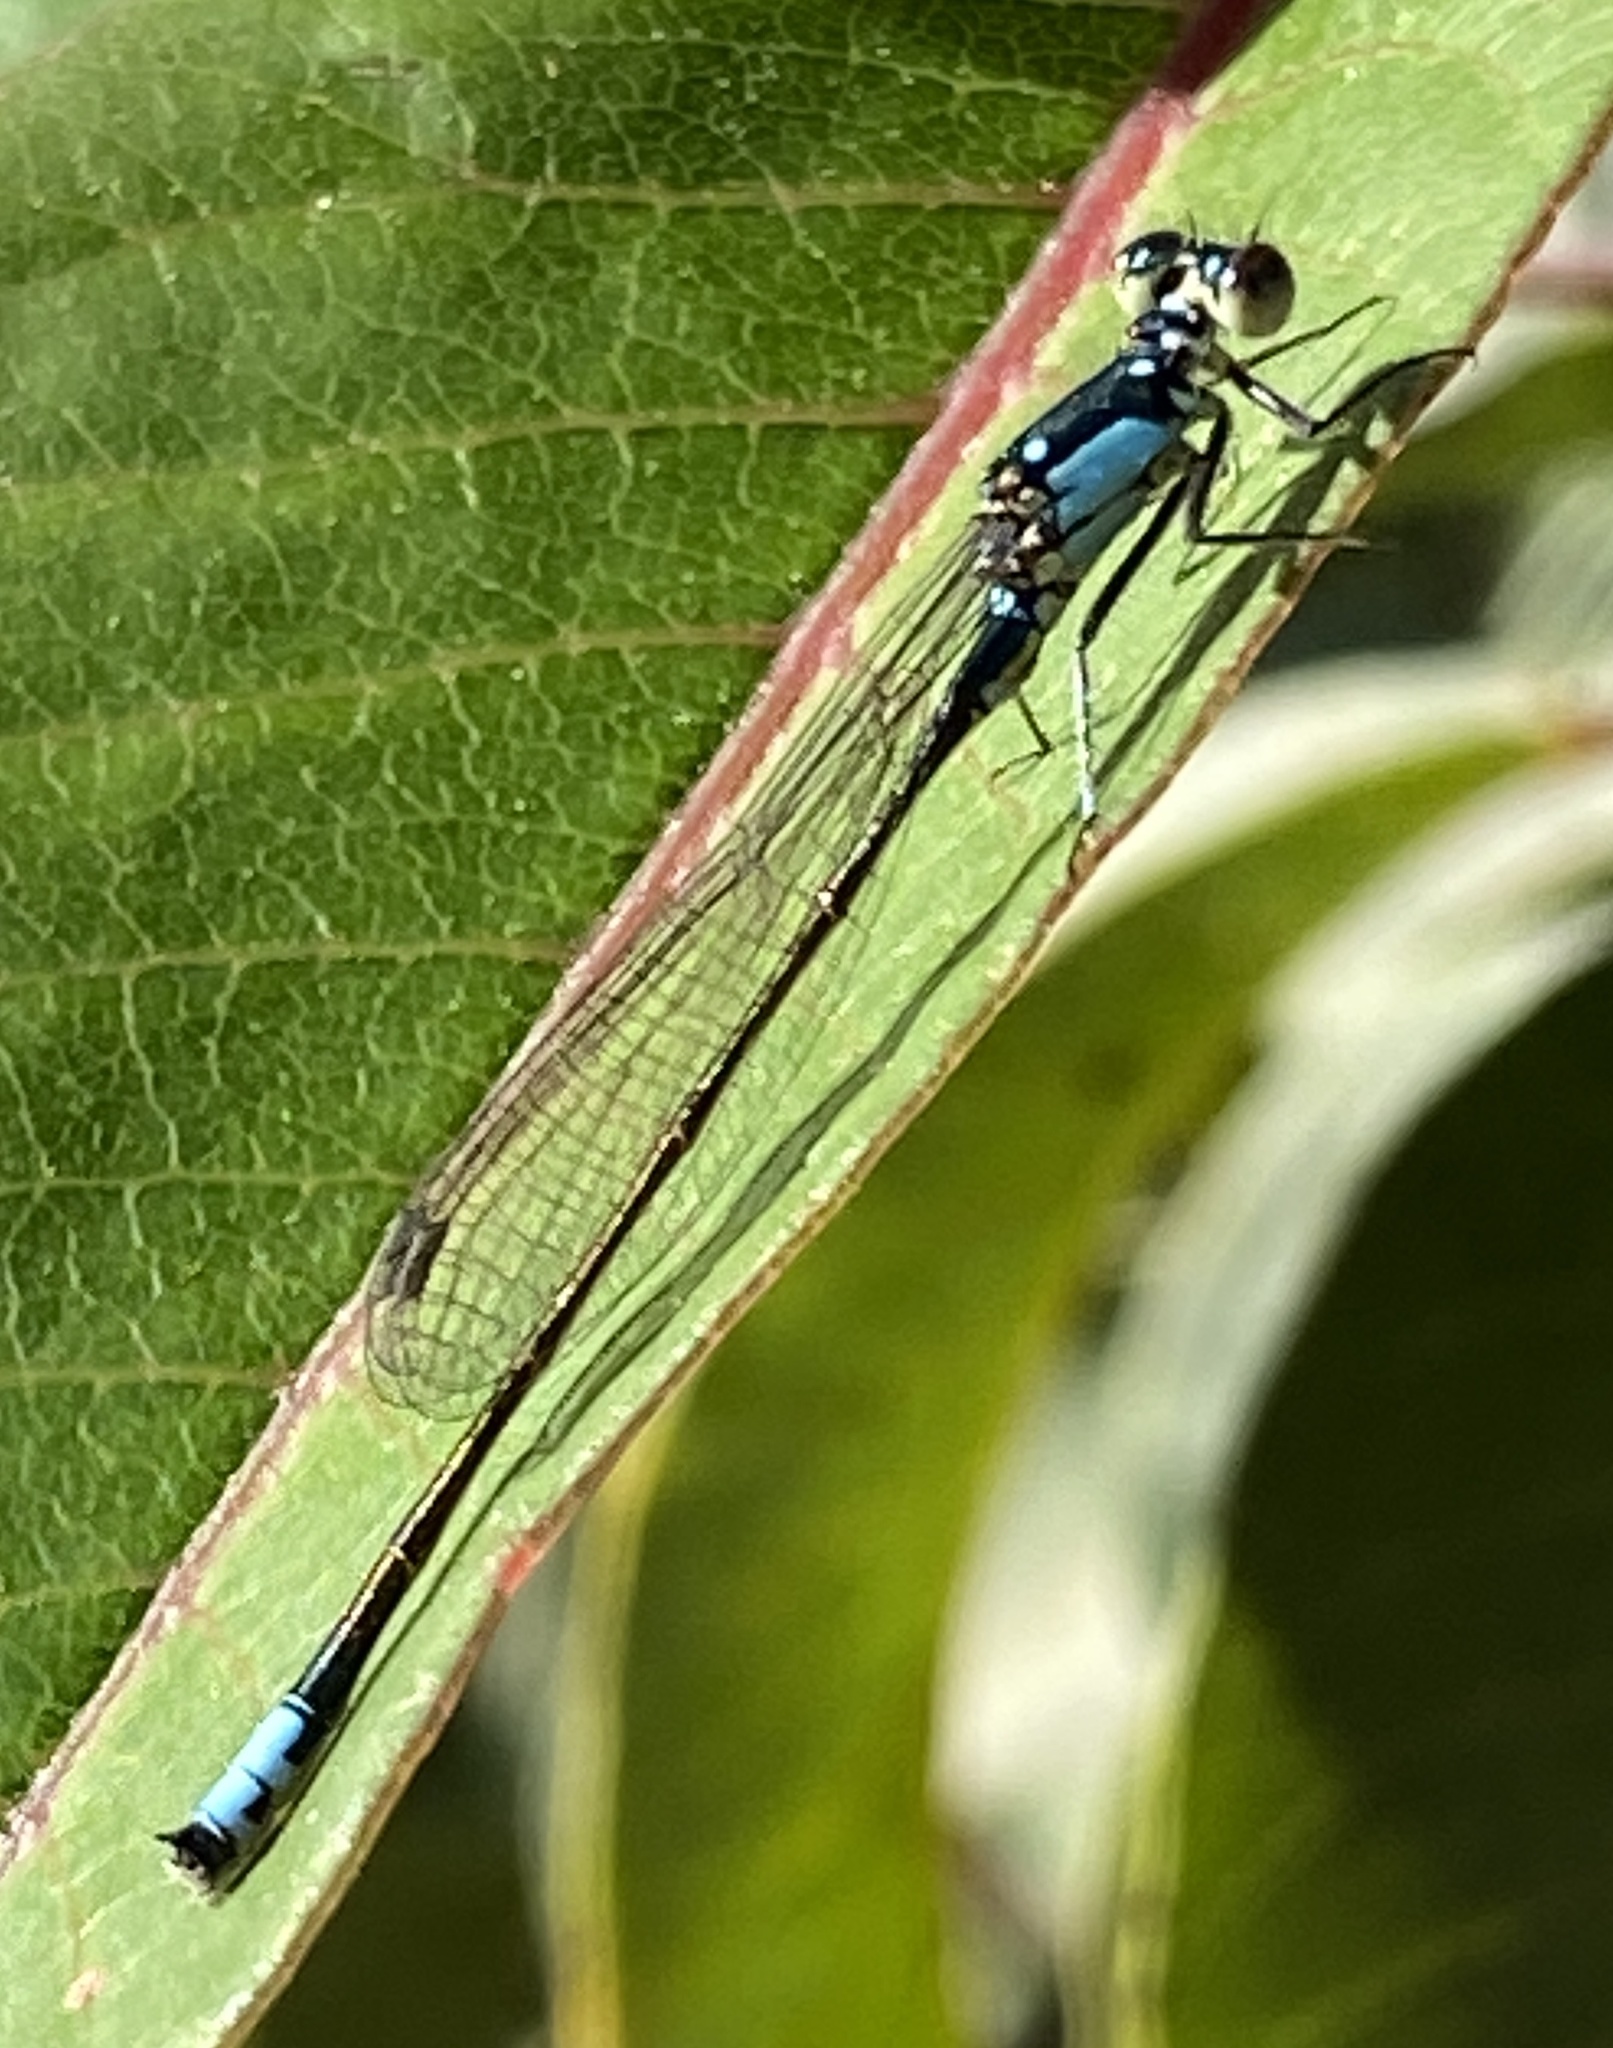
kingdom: Animalia
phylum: Arthropoda
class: Insecta
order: Odonata
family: Coenagrionidae
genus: Ischnura
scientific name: Ischnura cervula
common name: Pacific forktail
